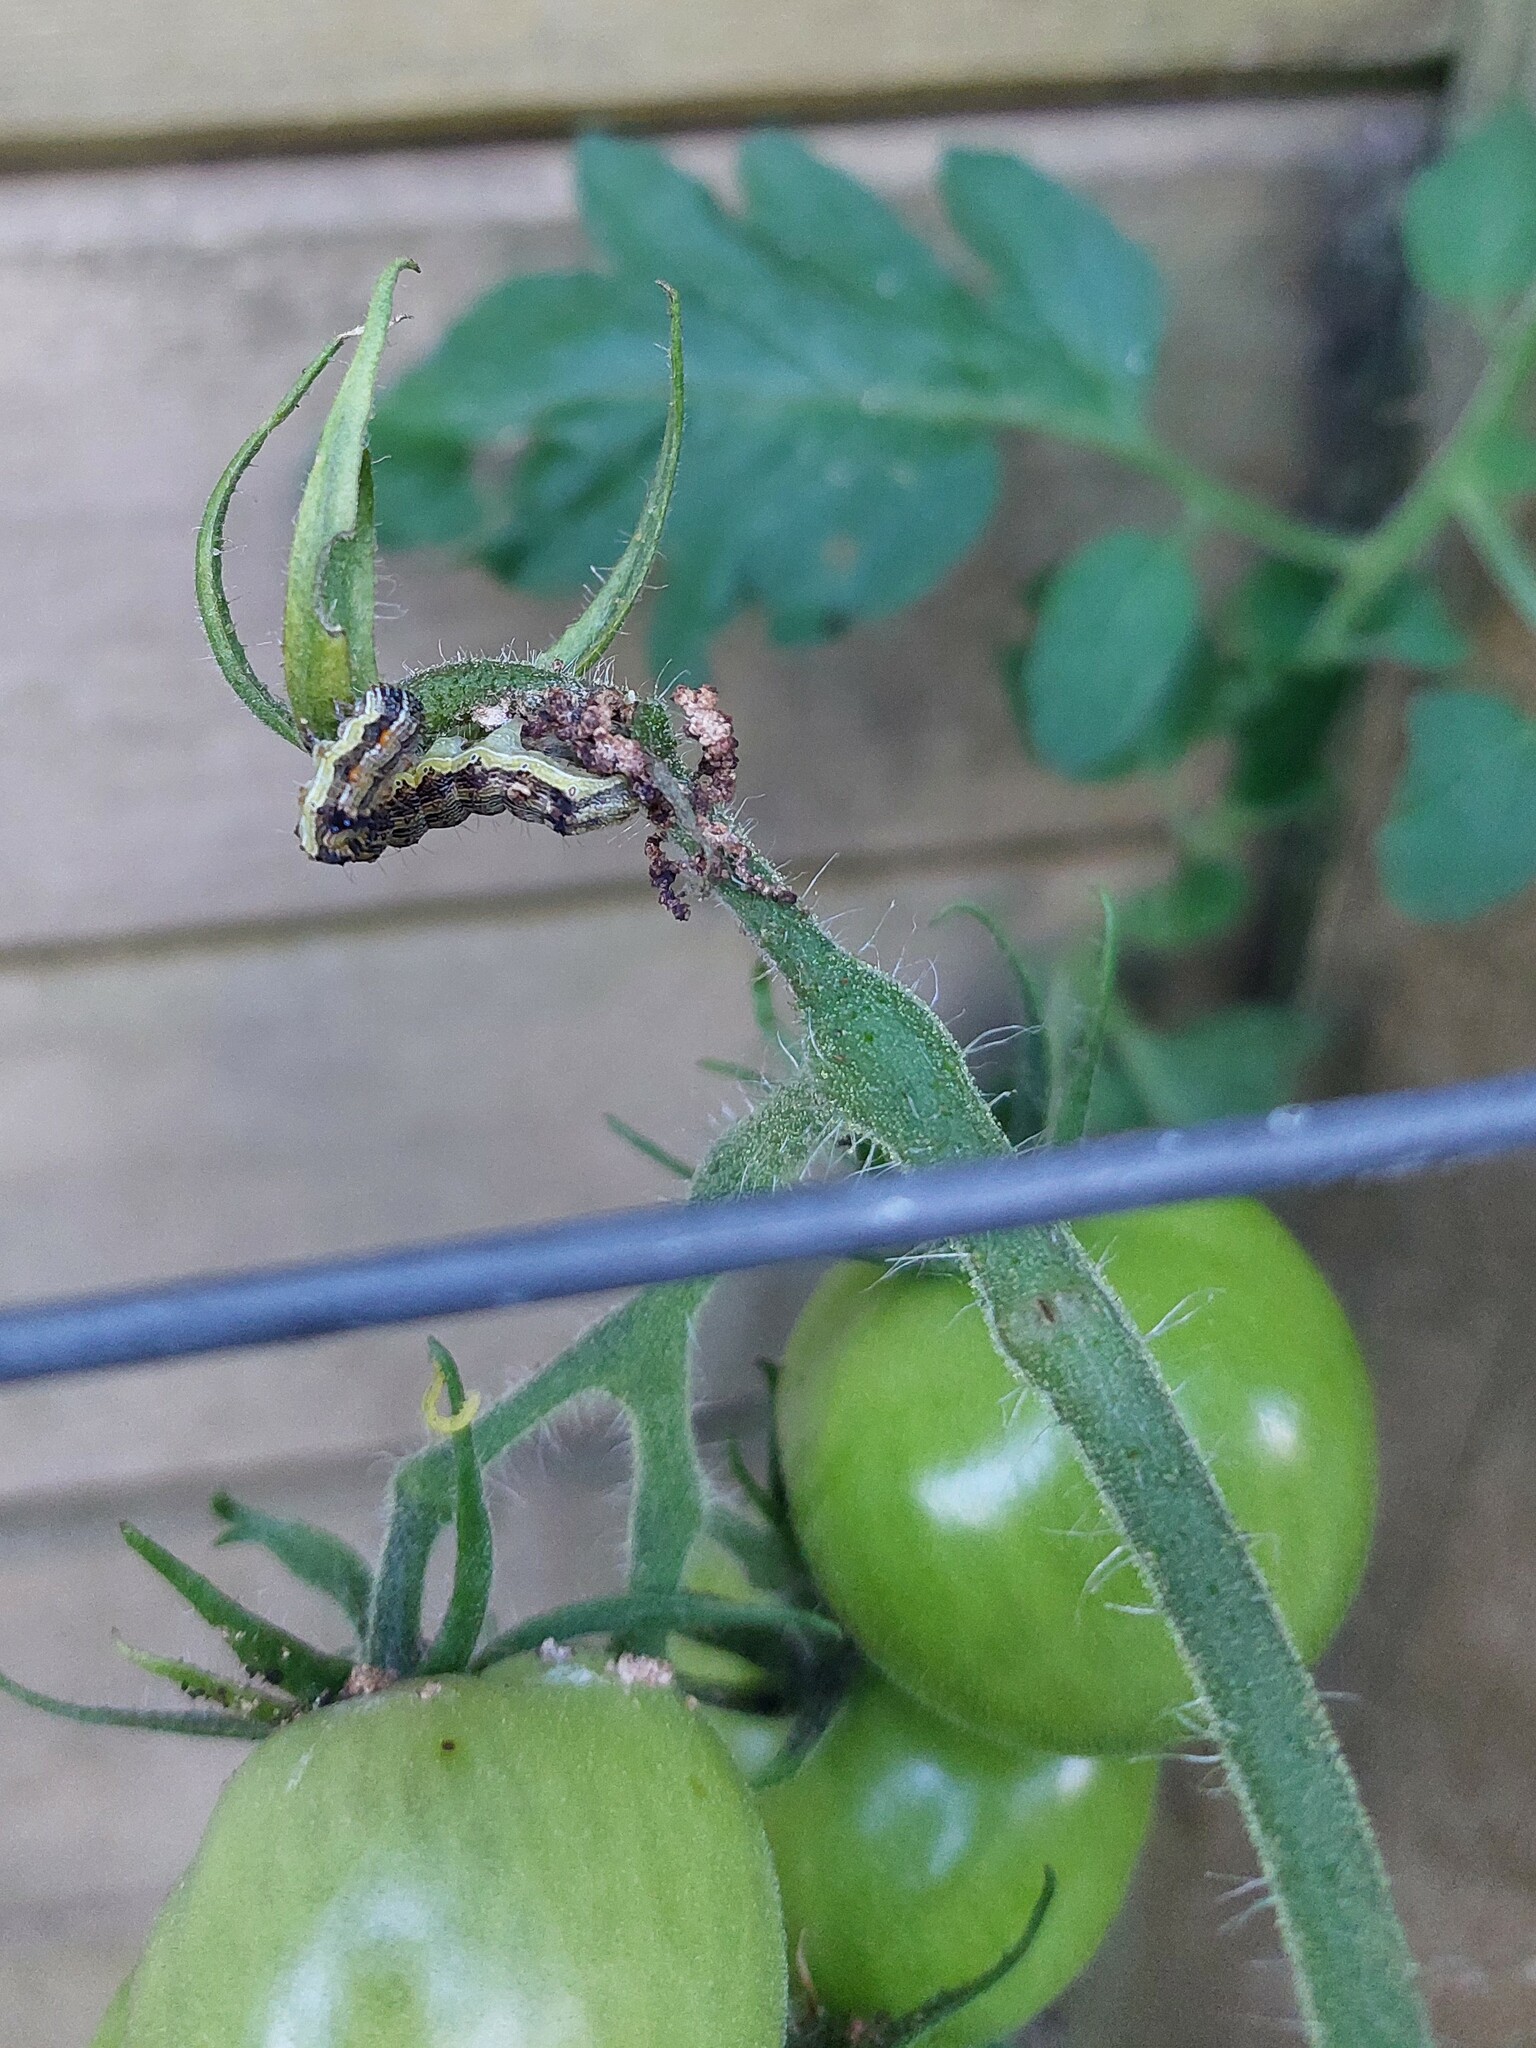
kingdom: Animalia
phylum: Arthropoda
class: Insecta
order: Lepidoptera
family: Noctuidae
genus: Helicoverpa
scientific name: Helicoverpa armigera
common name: Cotton bollworm
